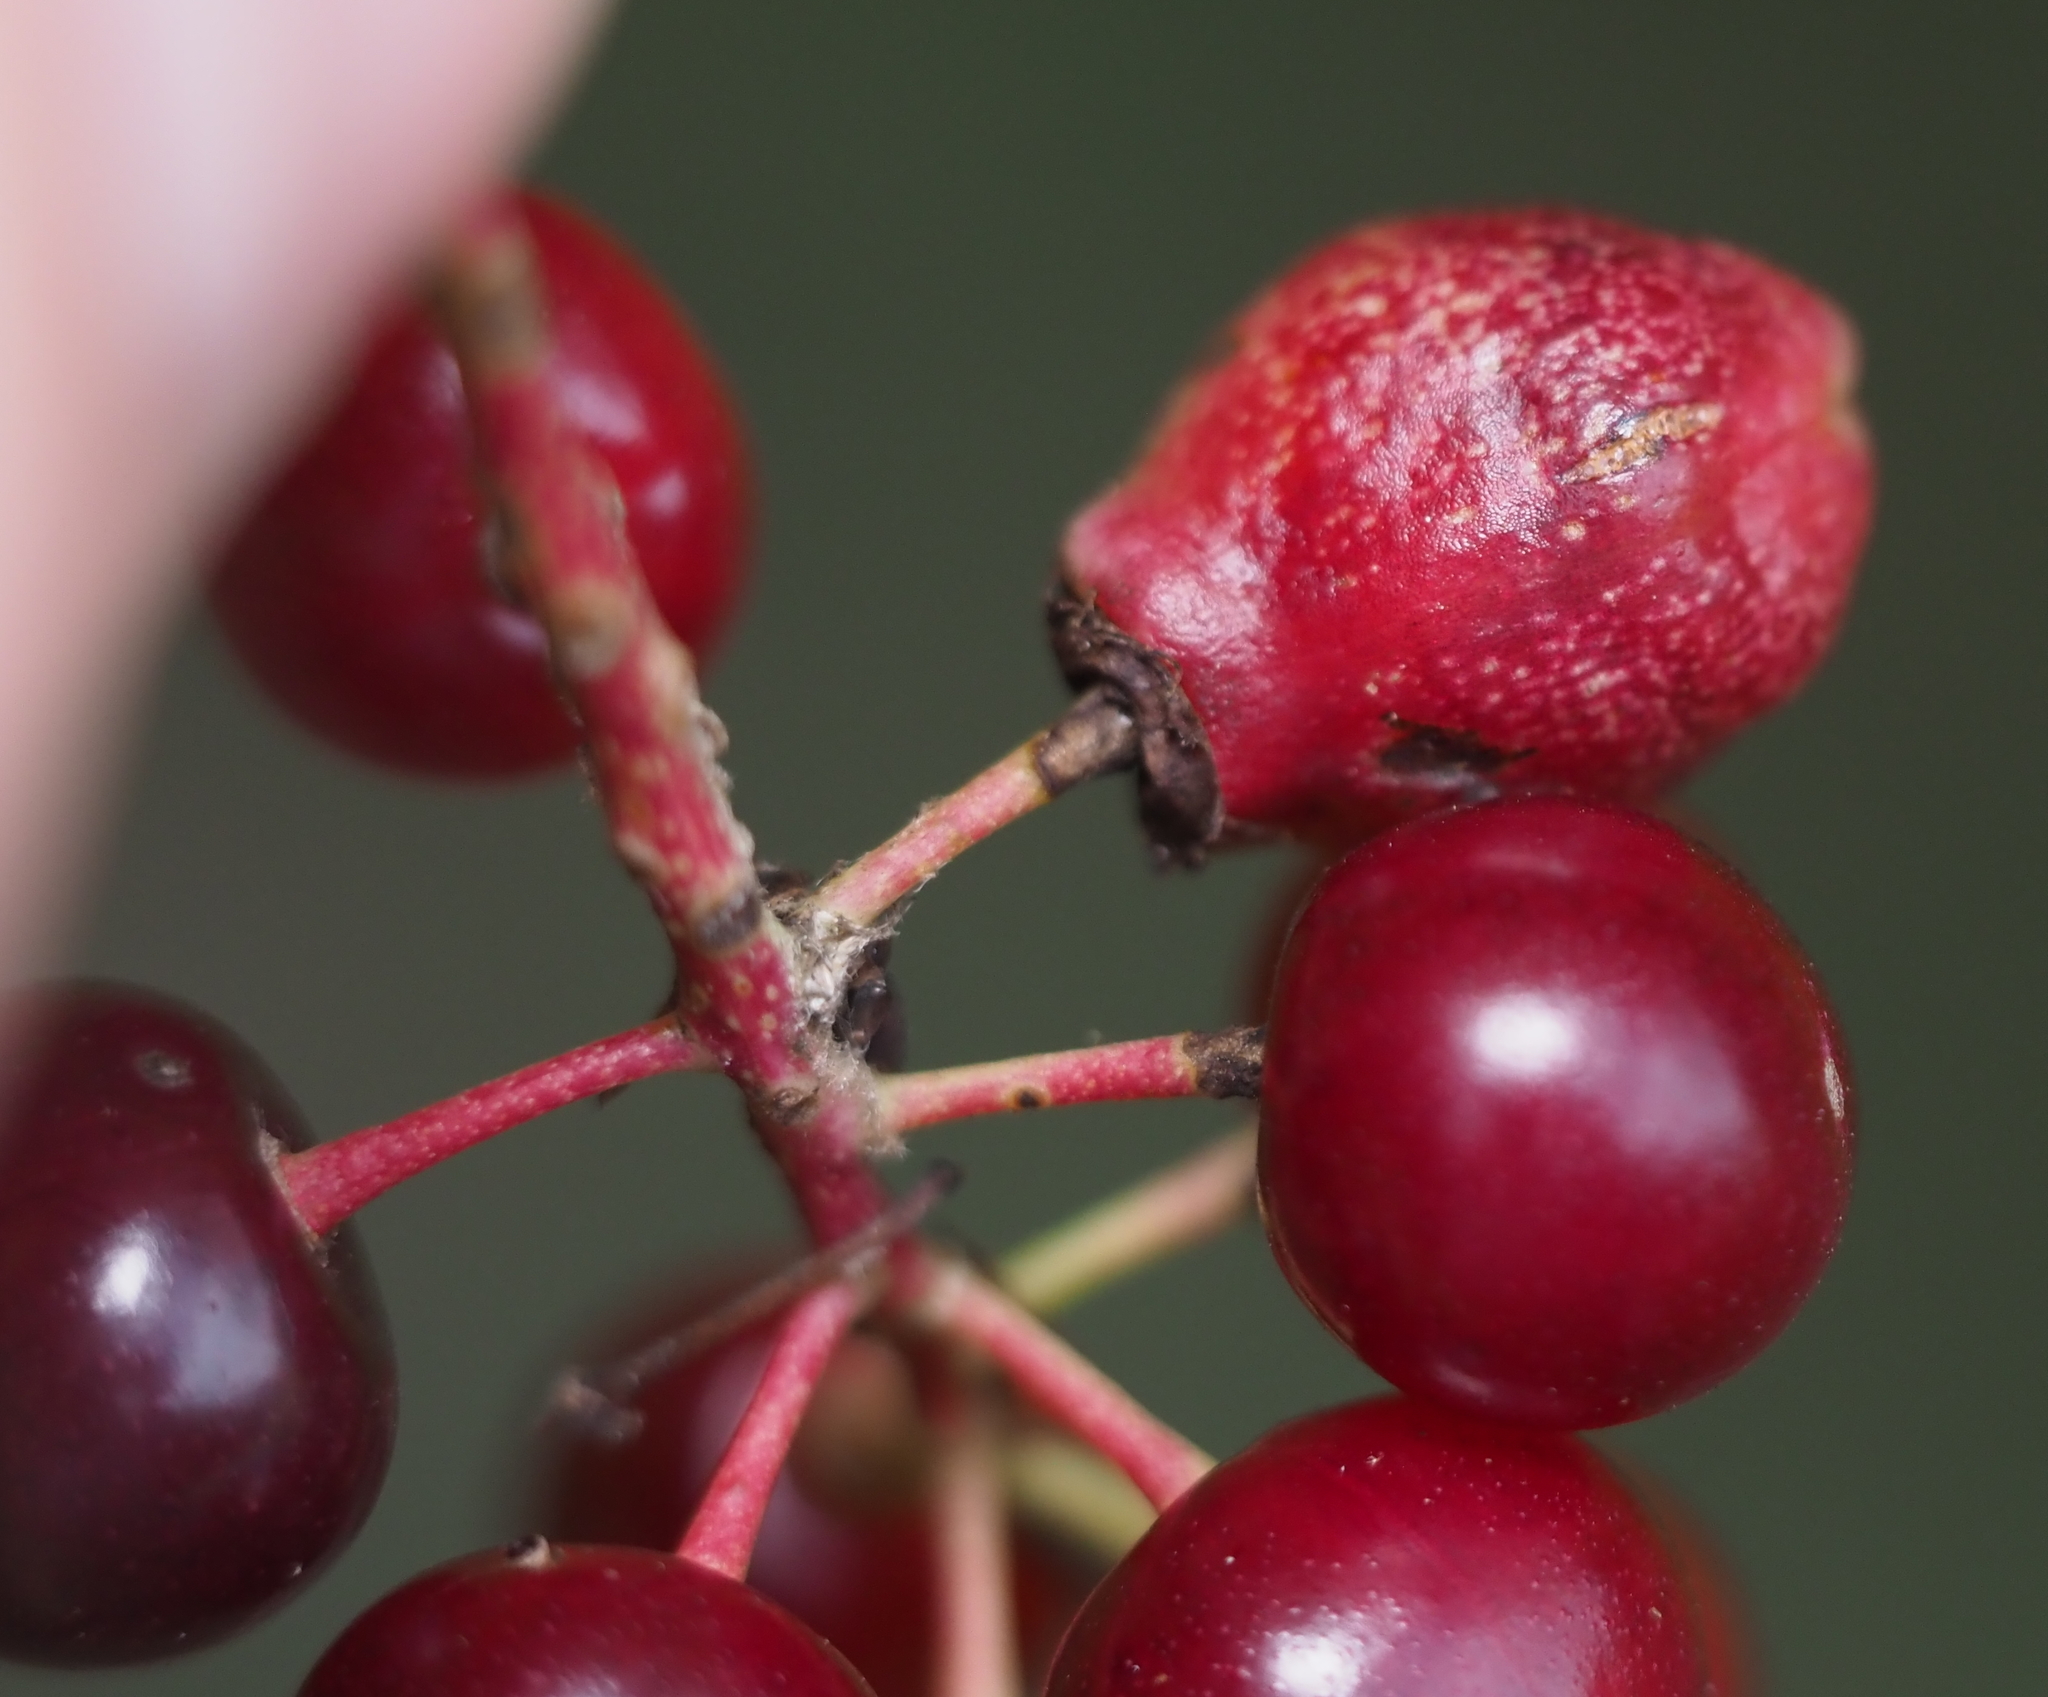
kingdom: Animalia
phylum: Arthropoda
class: Insecta
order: Diptera
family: Cecidomyiidae
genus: Contarinia
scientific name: Contarinia virginianiae
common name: Chokecherry midge
